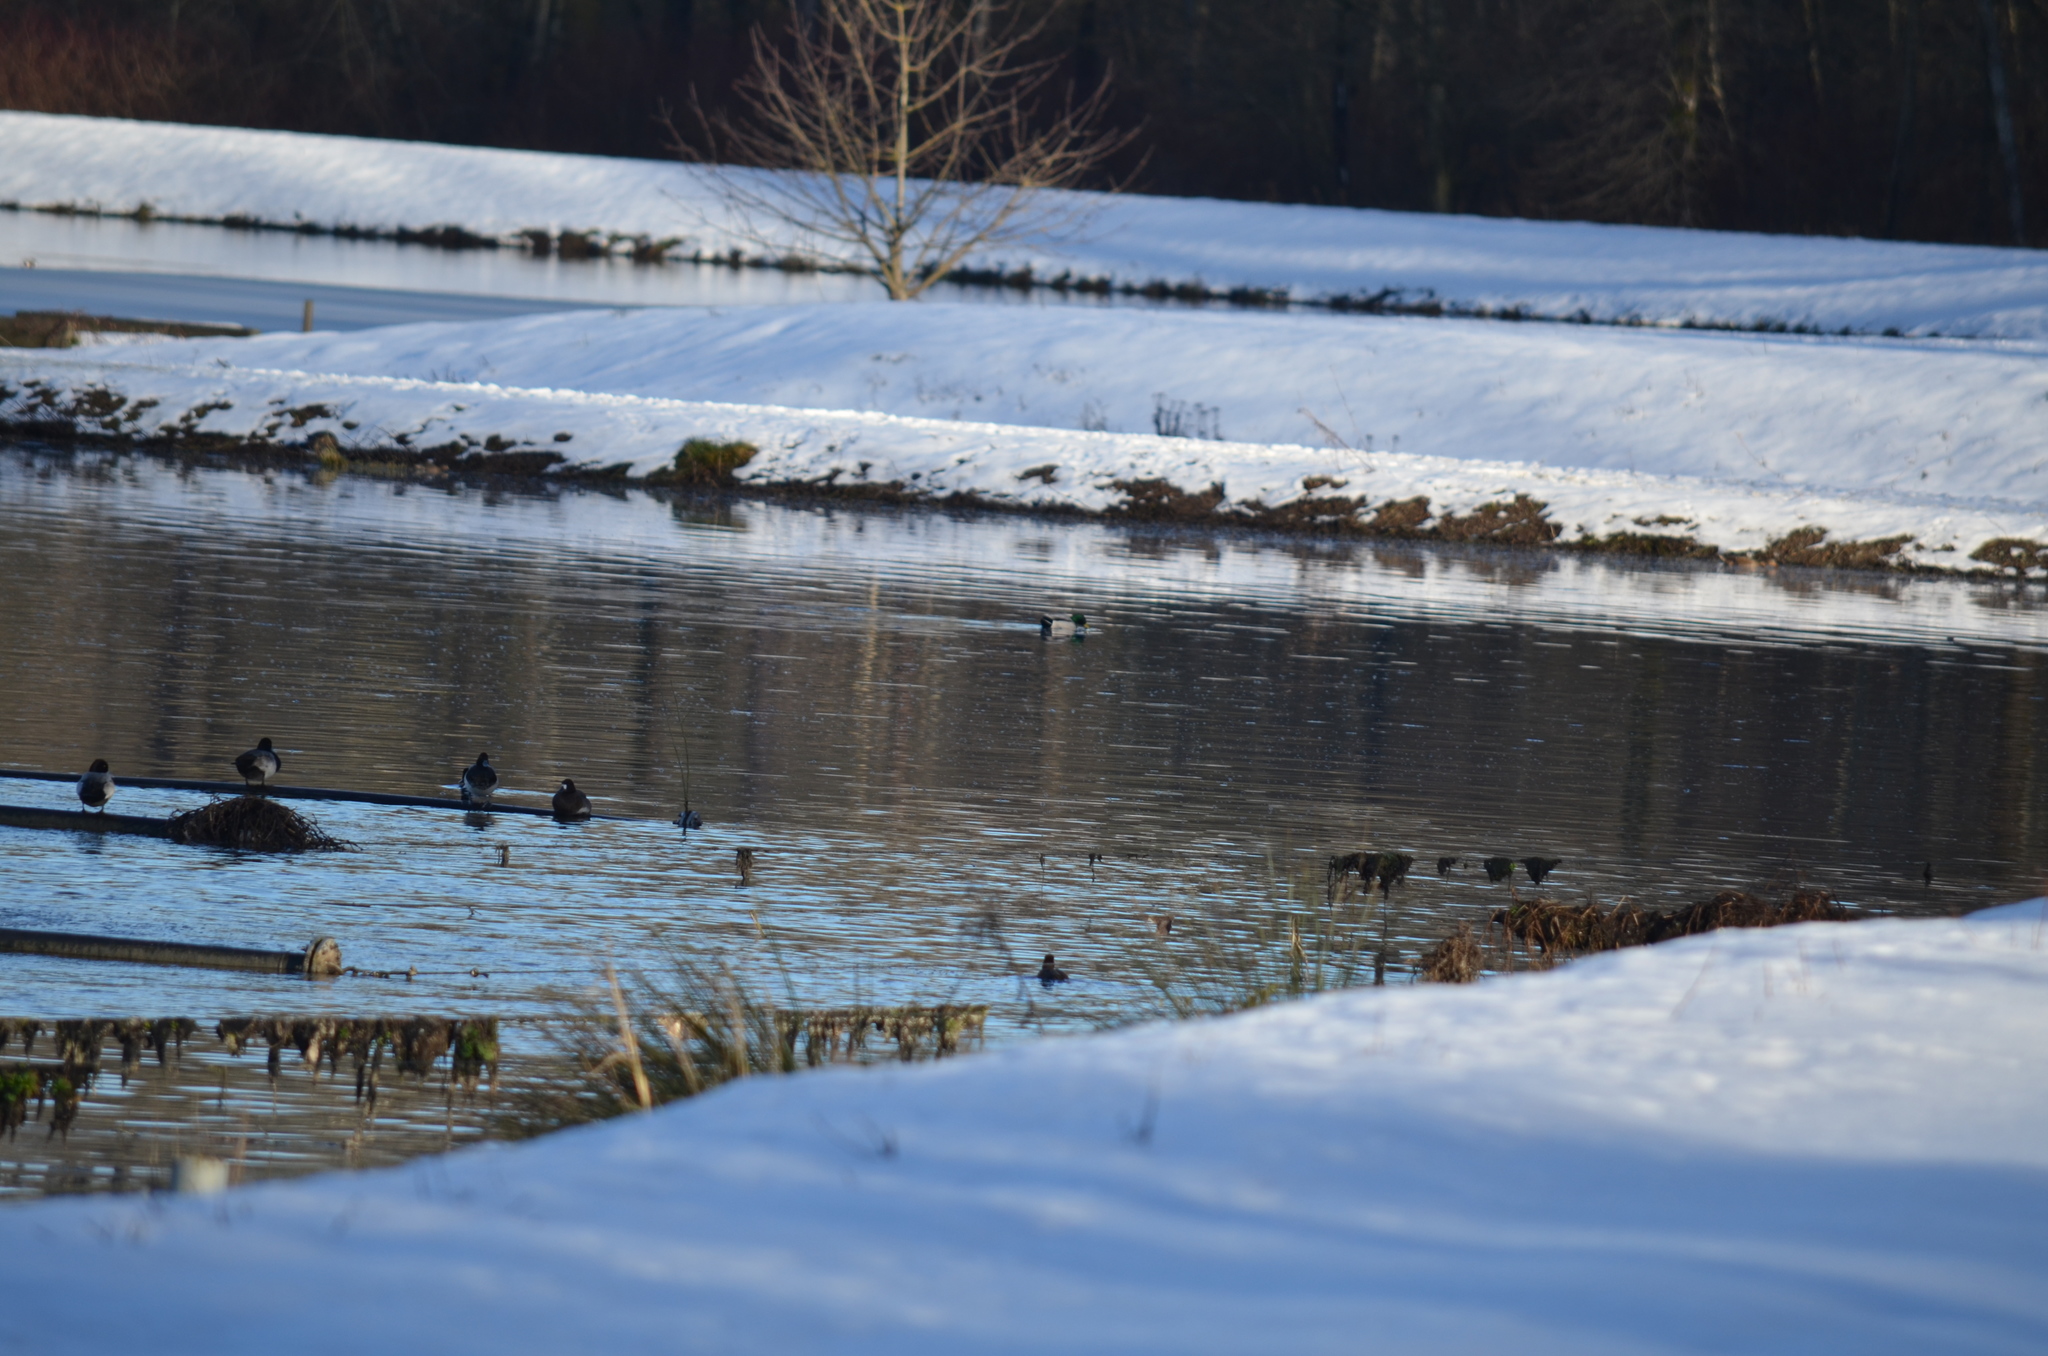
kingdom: Animalia
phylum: Chordata
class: Aves
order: Anseriformes
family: Anatidae
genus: Aythya
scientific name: Aythya affinis
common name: Lesser scaup
